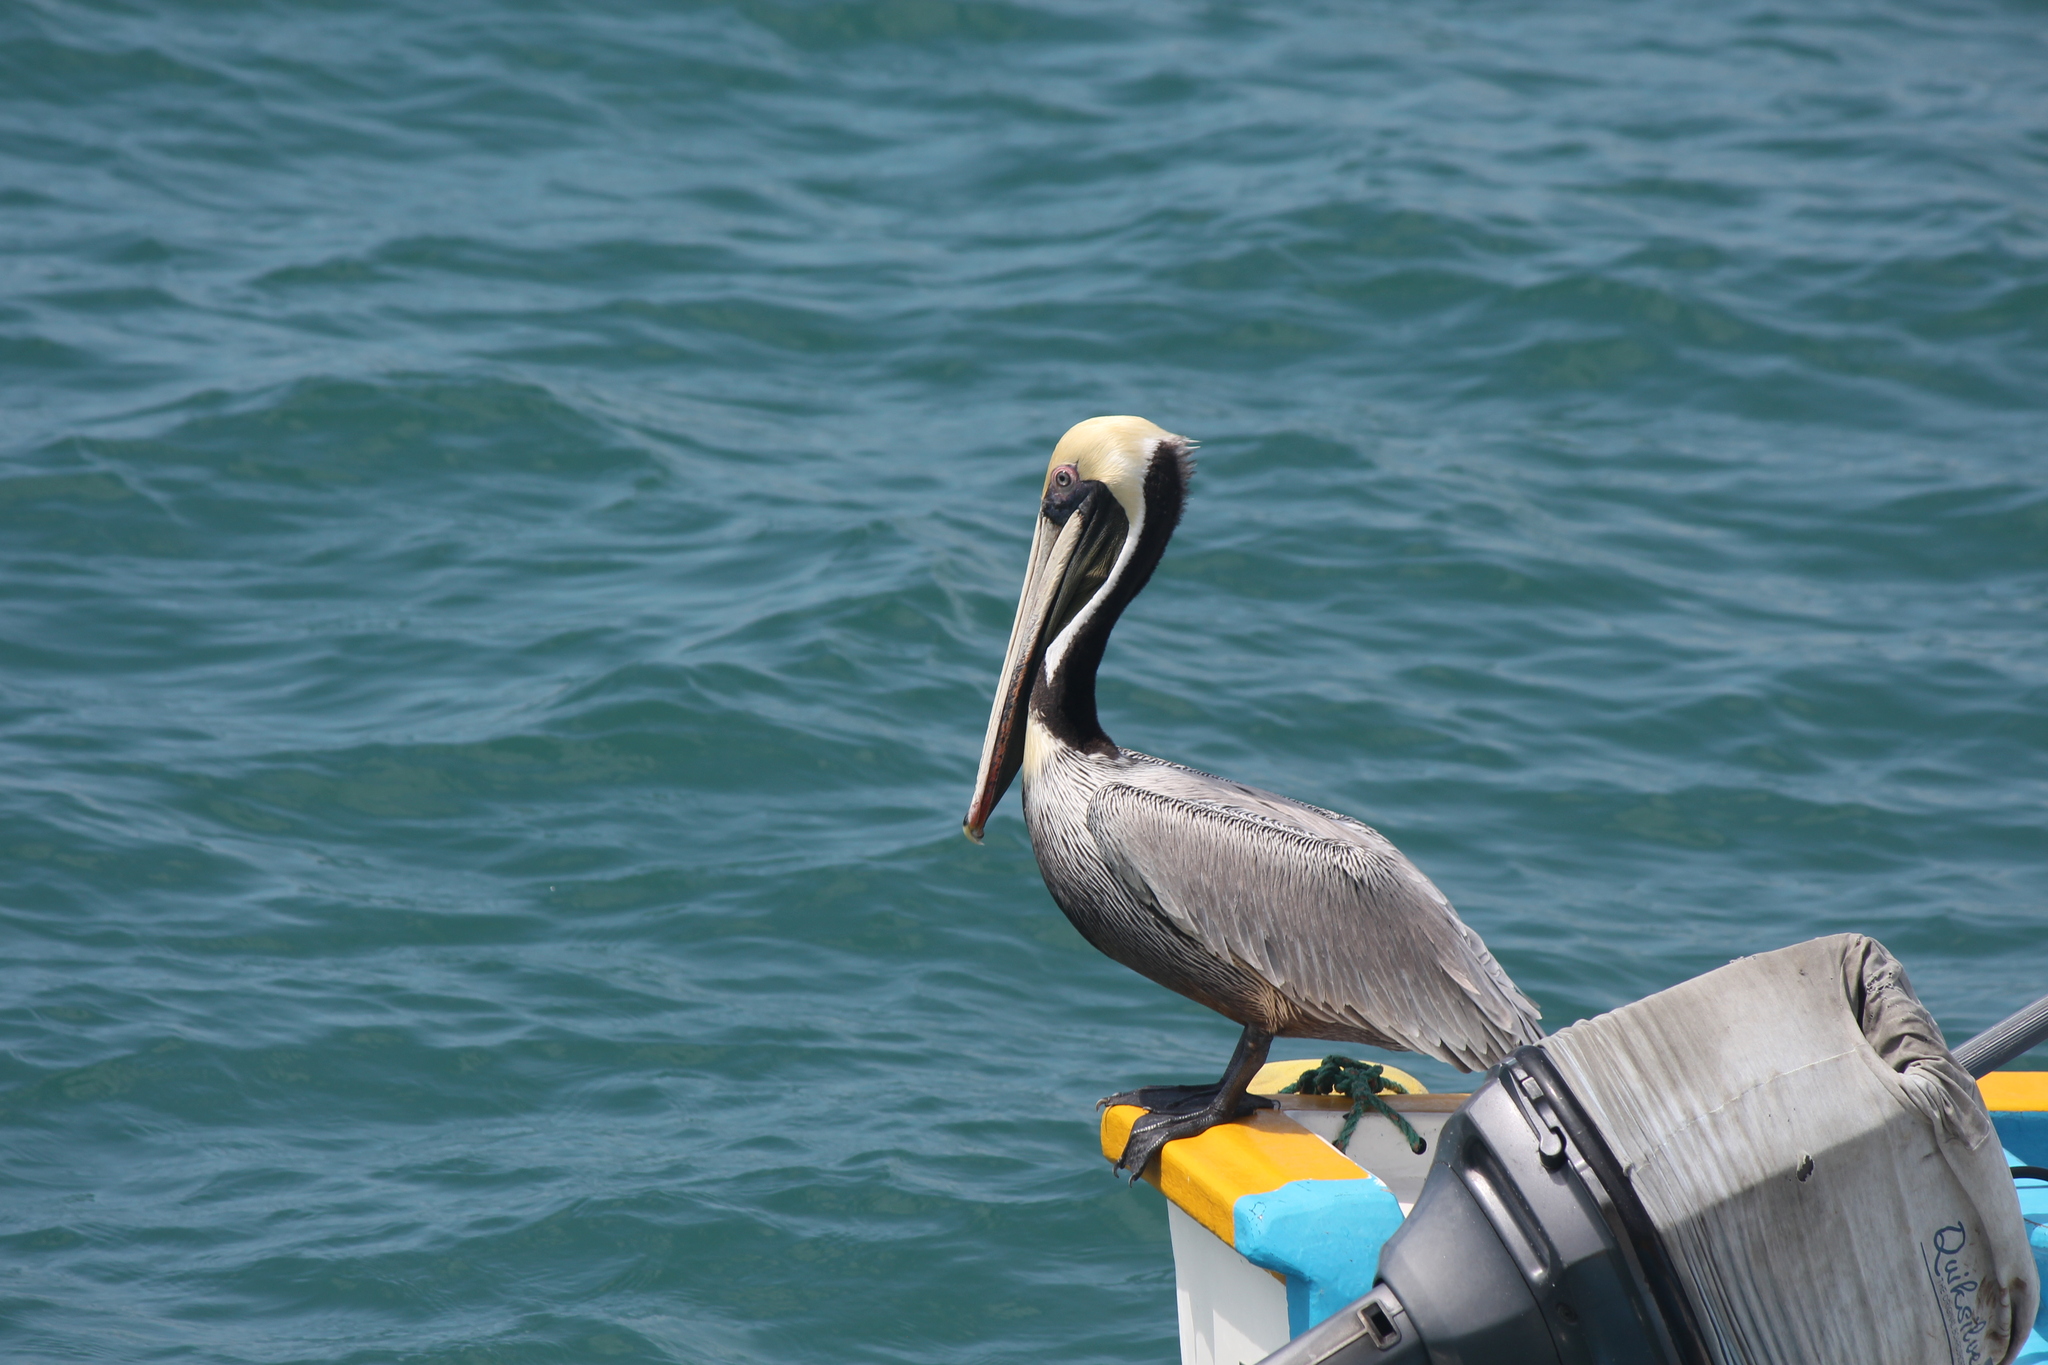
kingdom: Animalia
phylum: Chordata
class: Aves
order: Pelecaniformes
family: Pelecanidae
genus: Pelecanus
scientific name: Pelecanus occidentalis
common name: Brown pelican
